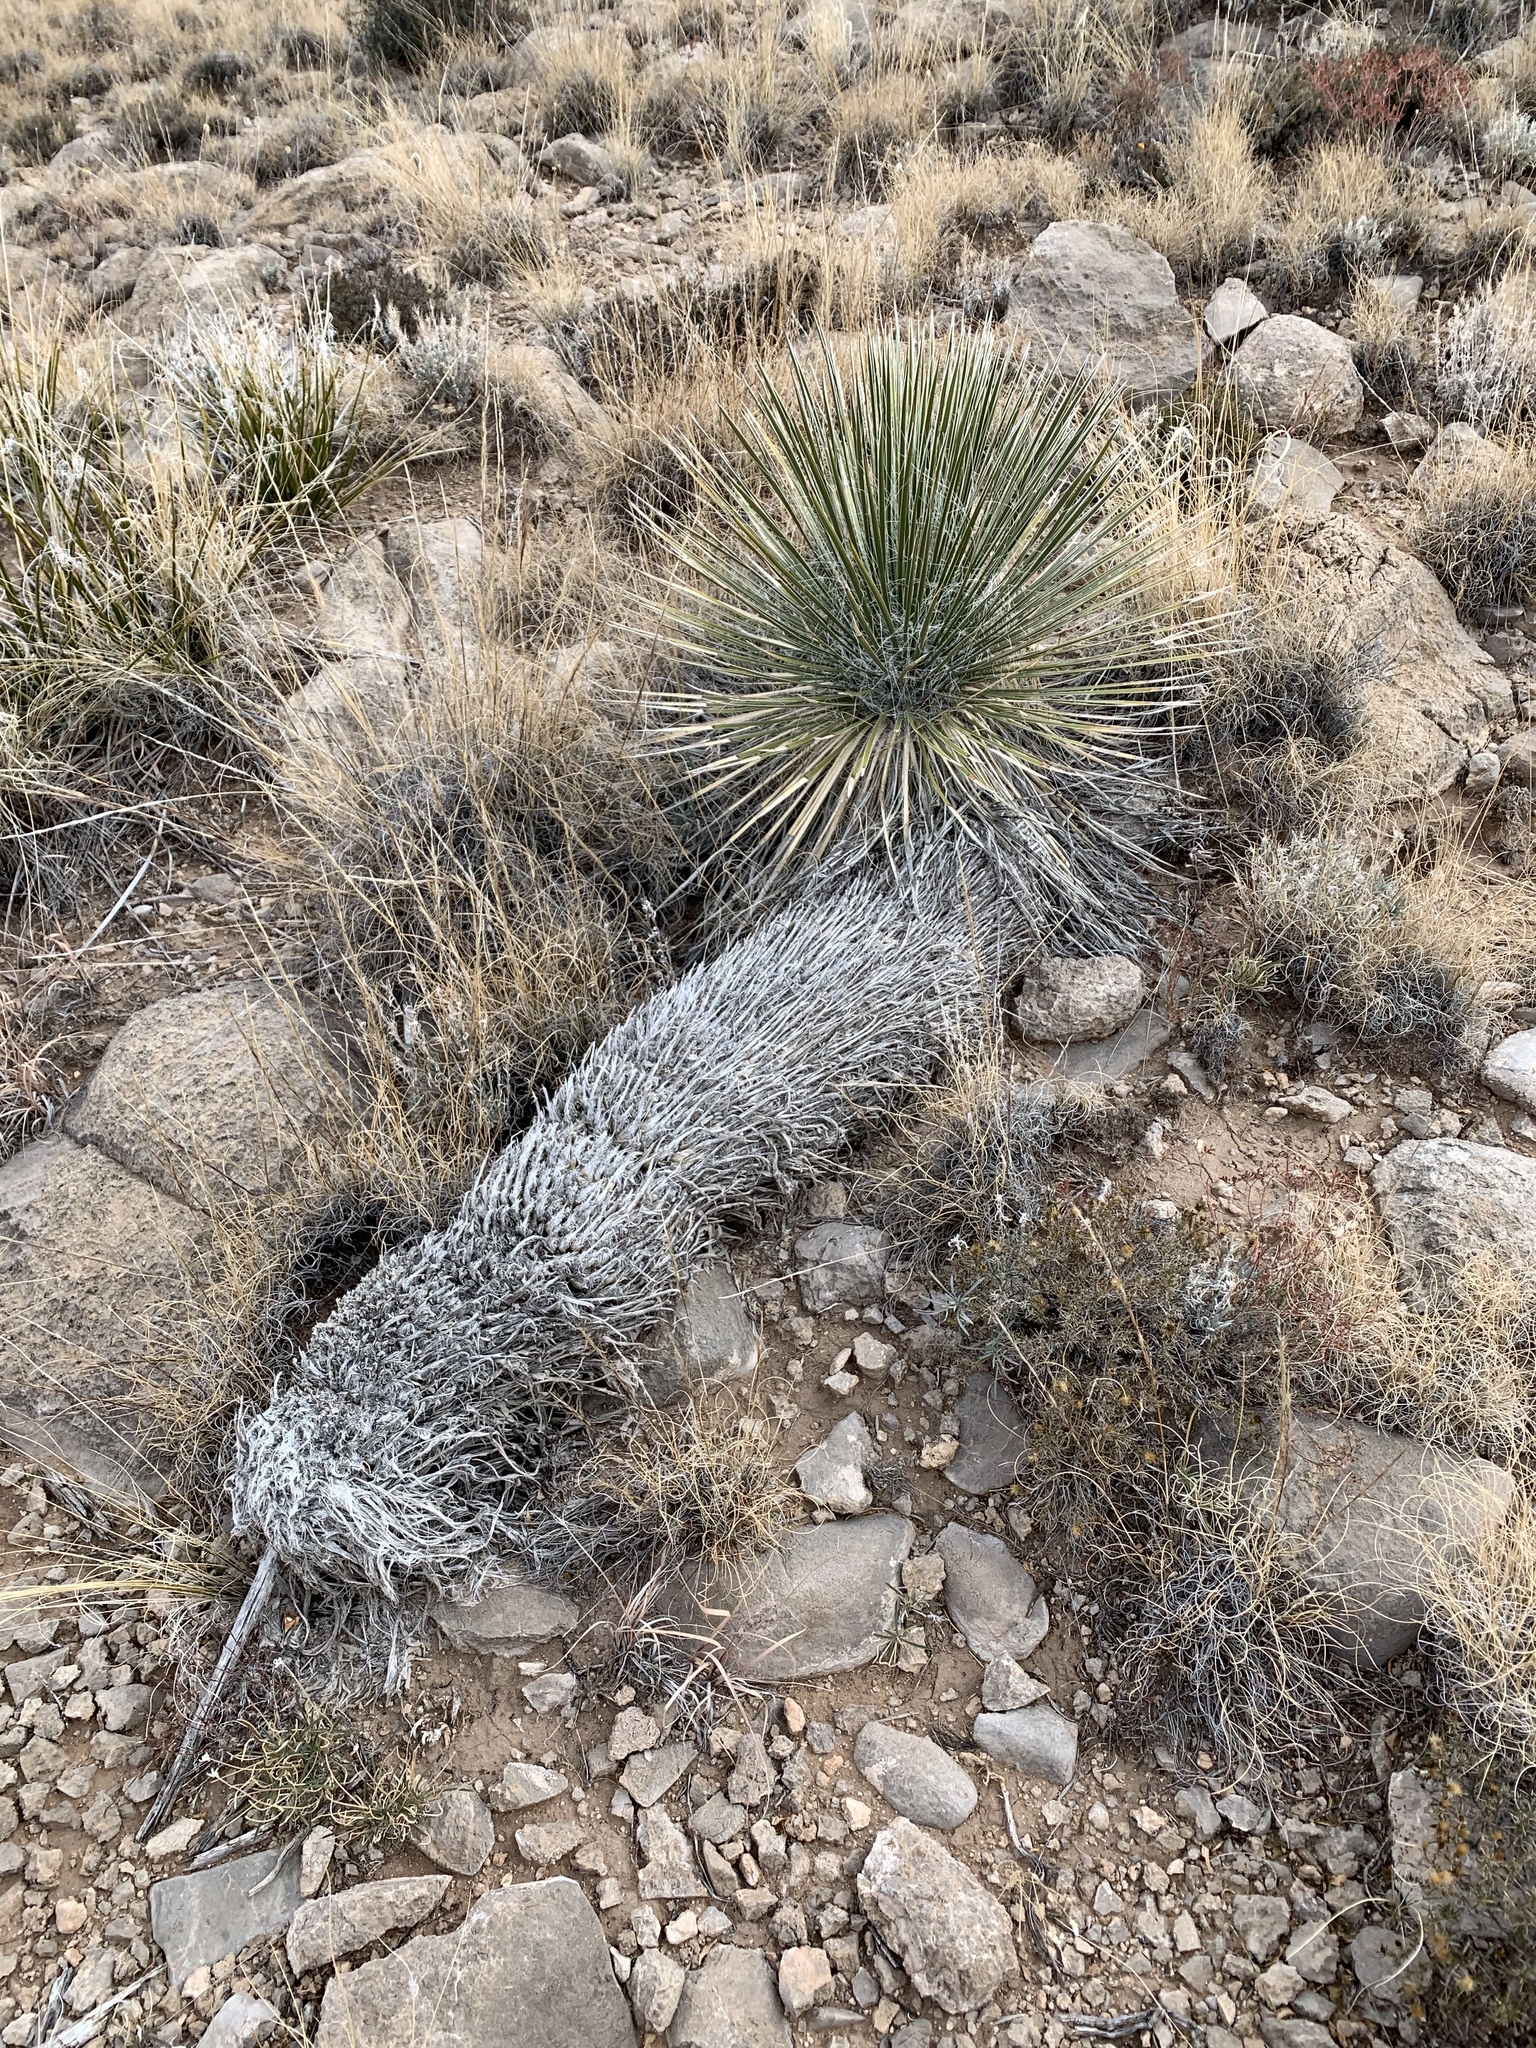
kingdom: Plantae
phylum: Tracheophyta
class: Liliopsida
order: Asparagales
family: Asparagaceae
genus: Yucca
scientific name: Yucca elata
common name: Palmella
